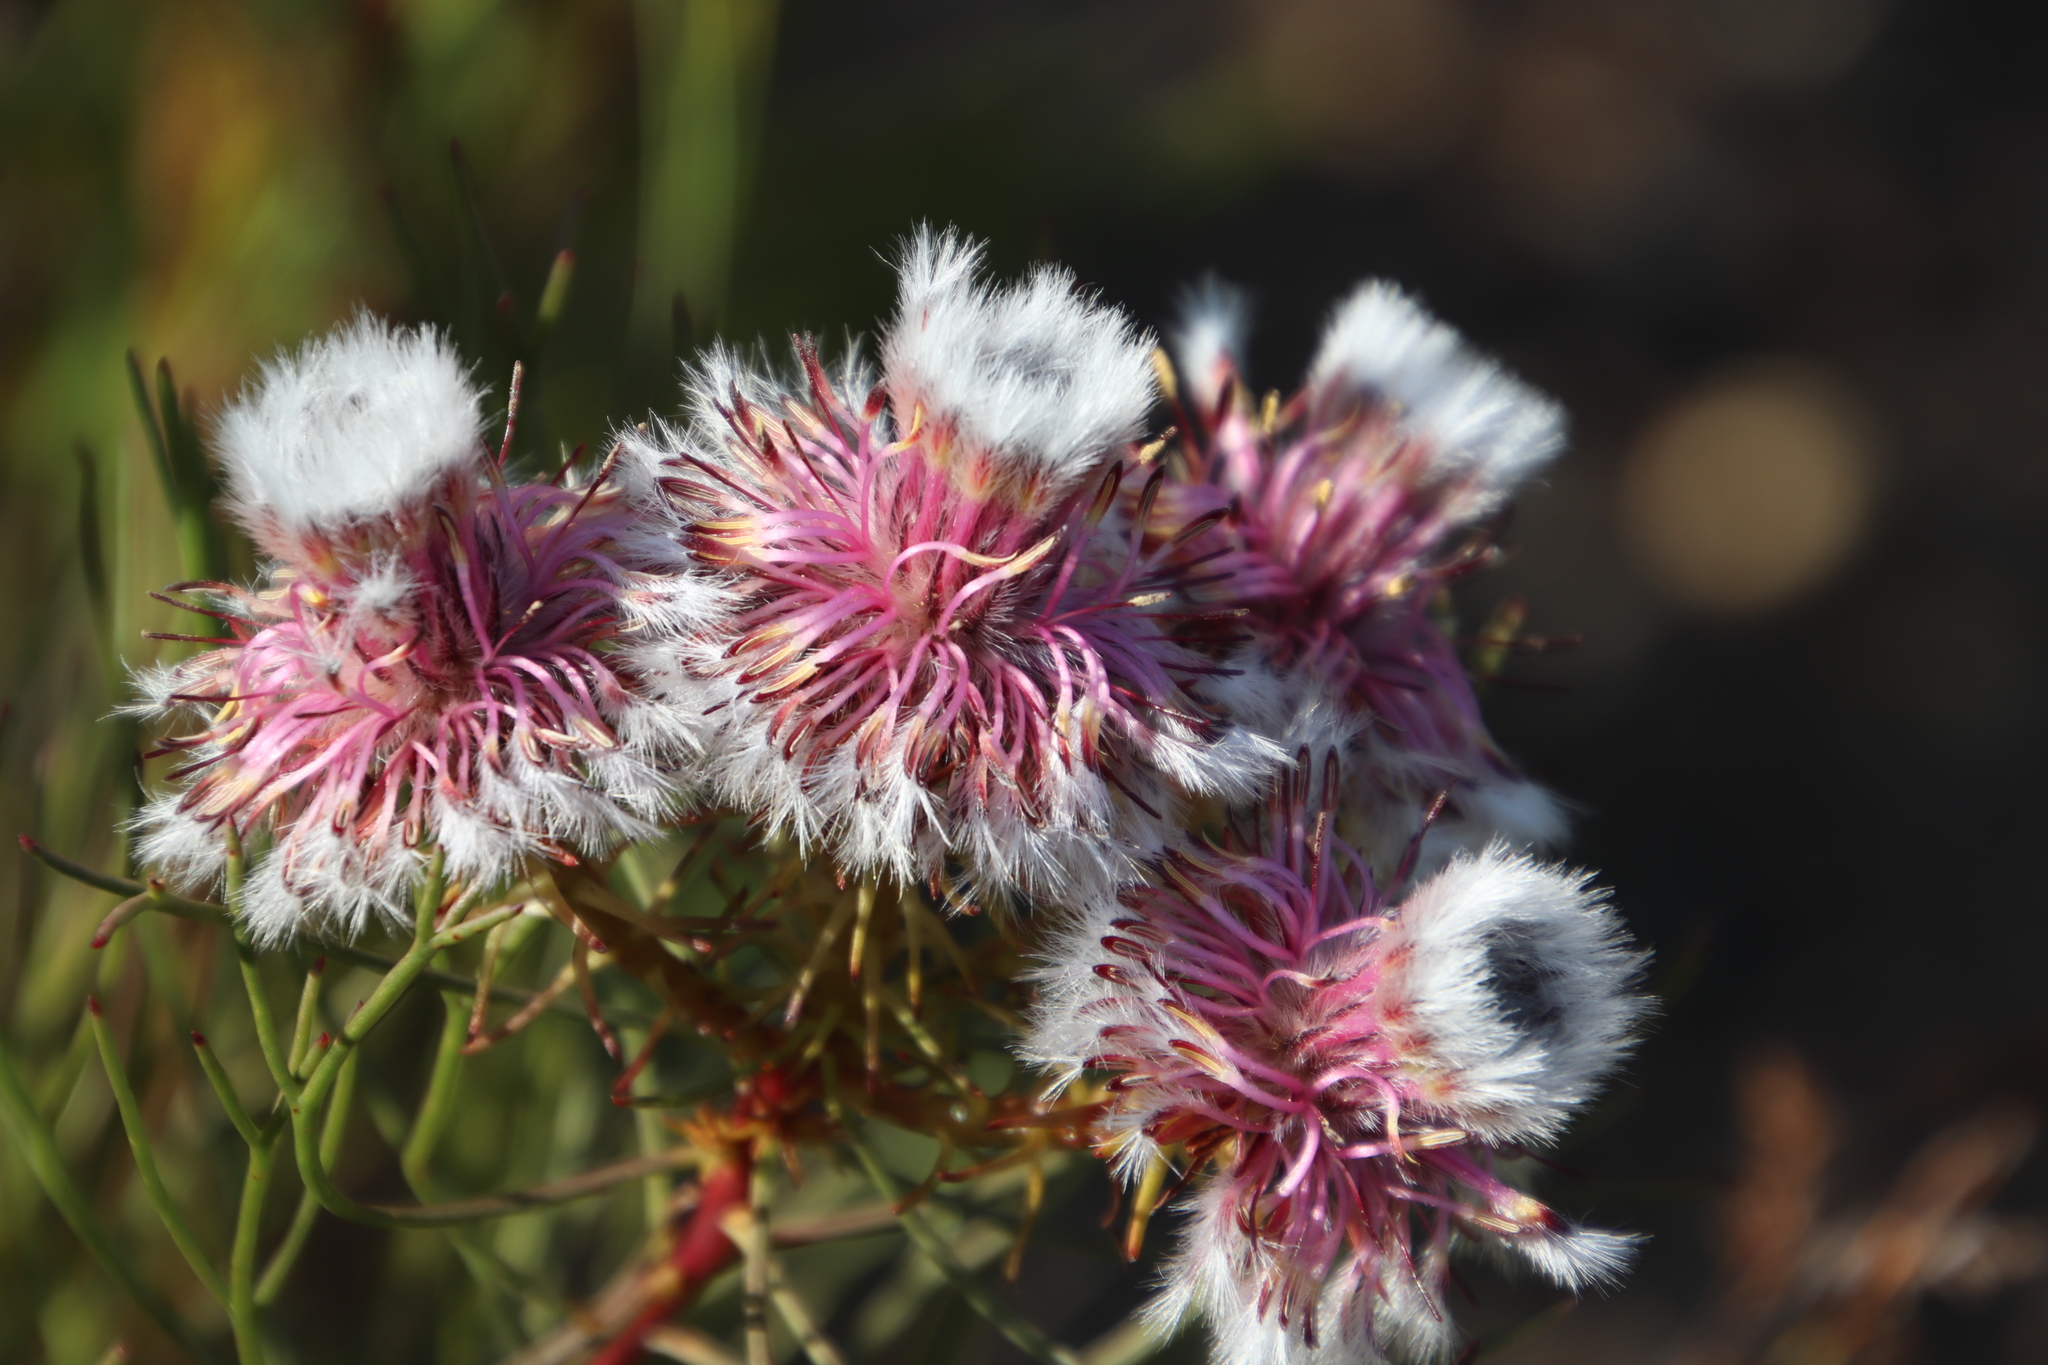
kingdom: Plantae
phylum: Tracheophyta
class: Magnoliopsida
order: Proteales
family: Proteaceae
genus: Serruria
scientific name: Serruria phylicoides
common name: Bearded spiderhead
